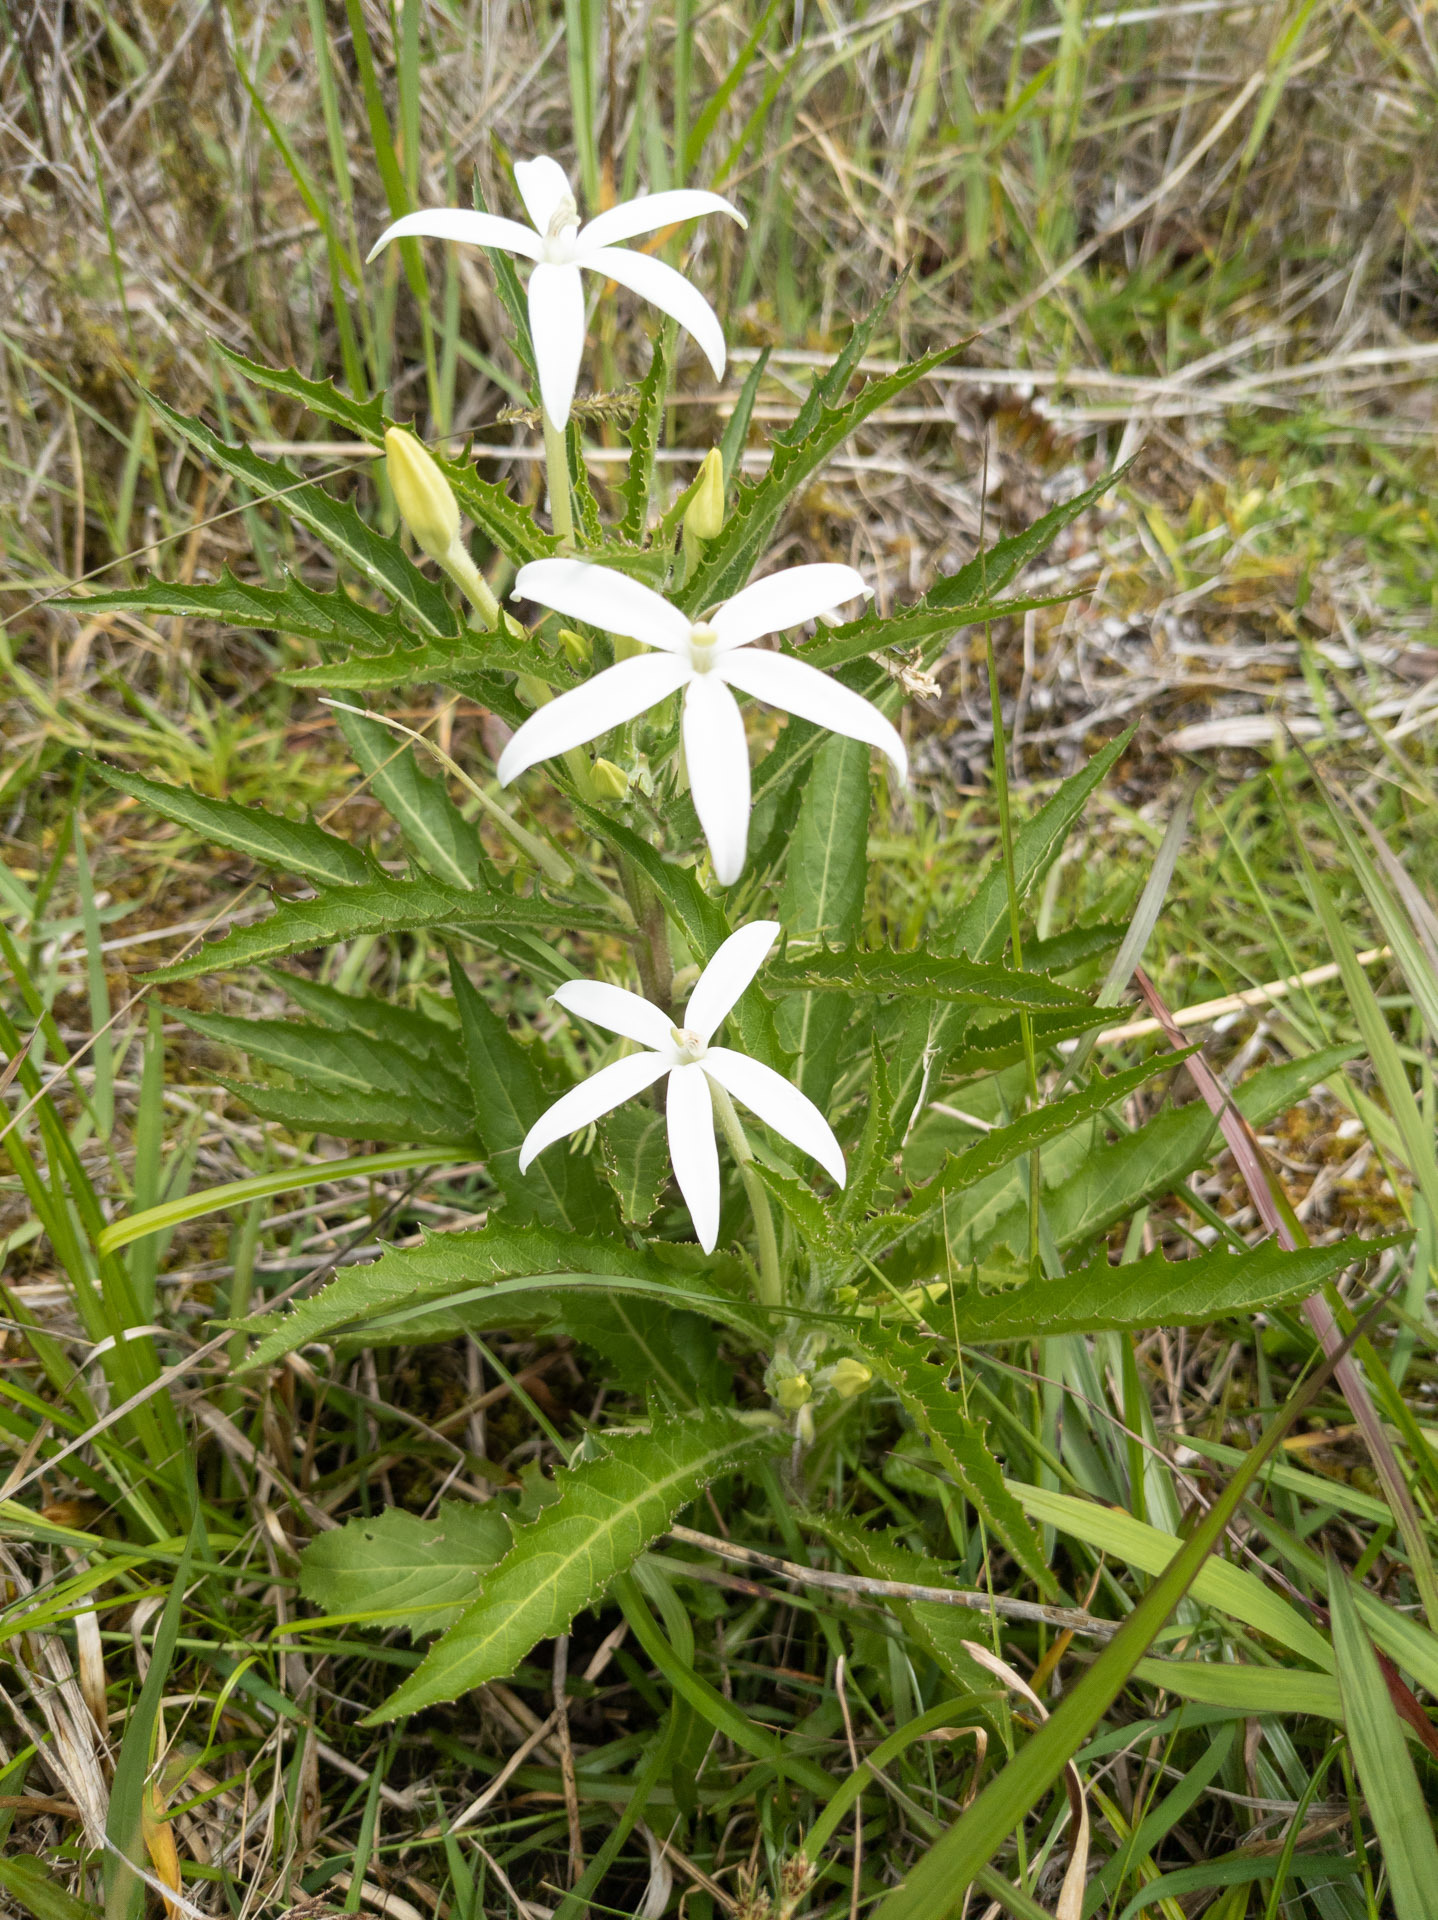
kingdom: Plantae
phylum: Tracheophyta
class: Magnoliopsida
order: Asterales
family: Campanulaceae
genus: Hippobroma
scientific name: Hippobroma longiflora
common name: Madamfate
